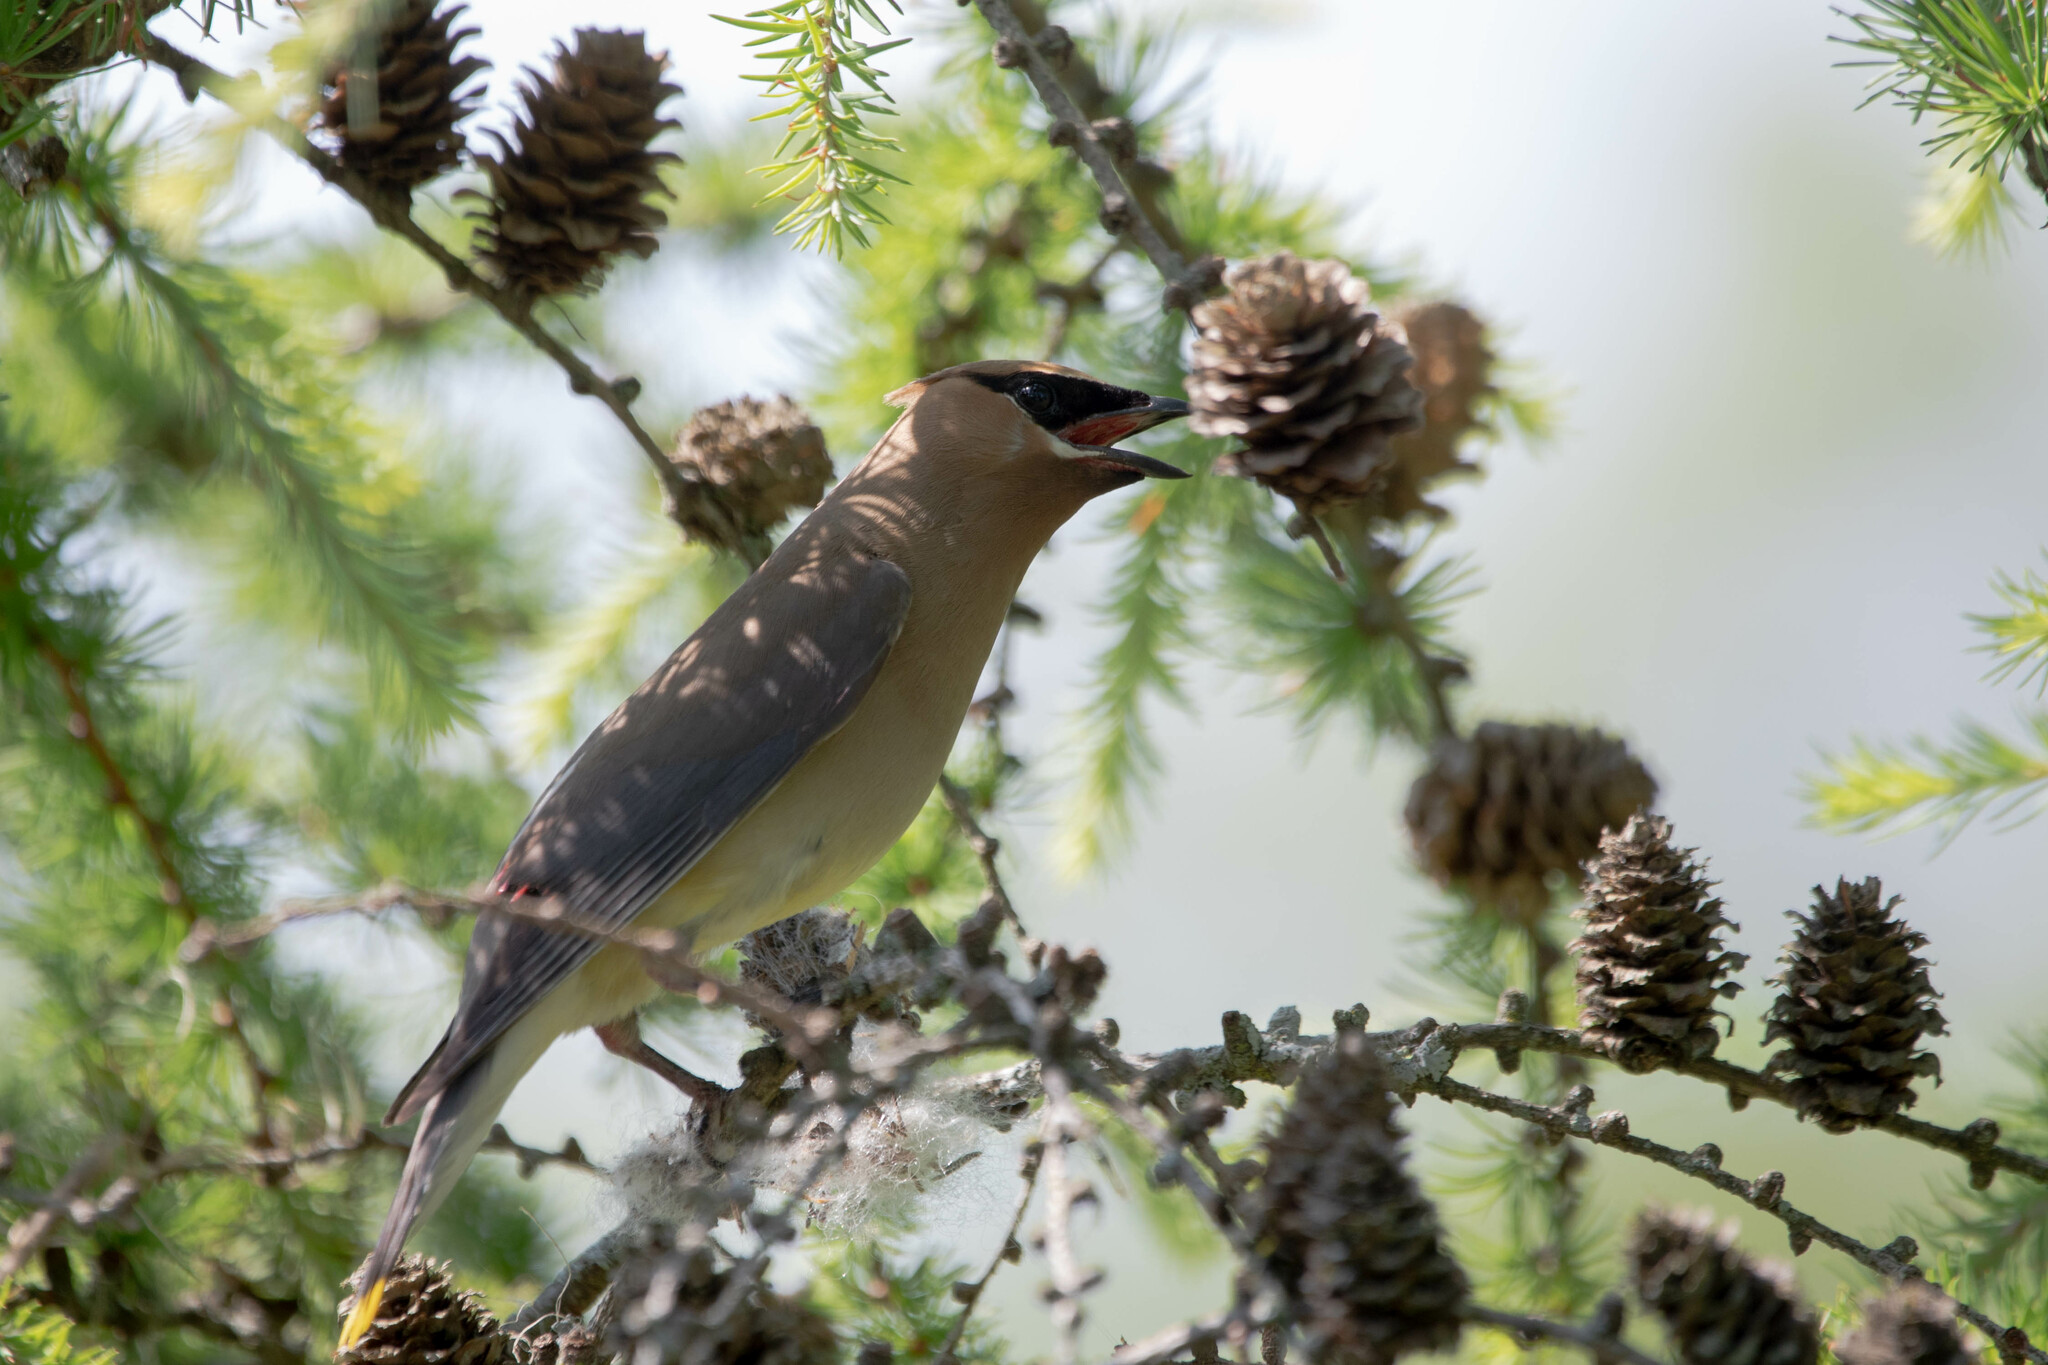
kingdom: Animalia
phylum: Chordata
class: Aves
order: Passeriformes
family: Bombycillidae
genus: Bombycilla
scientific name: Bombycilla cedrorum
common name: Cedar waxwing
